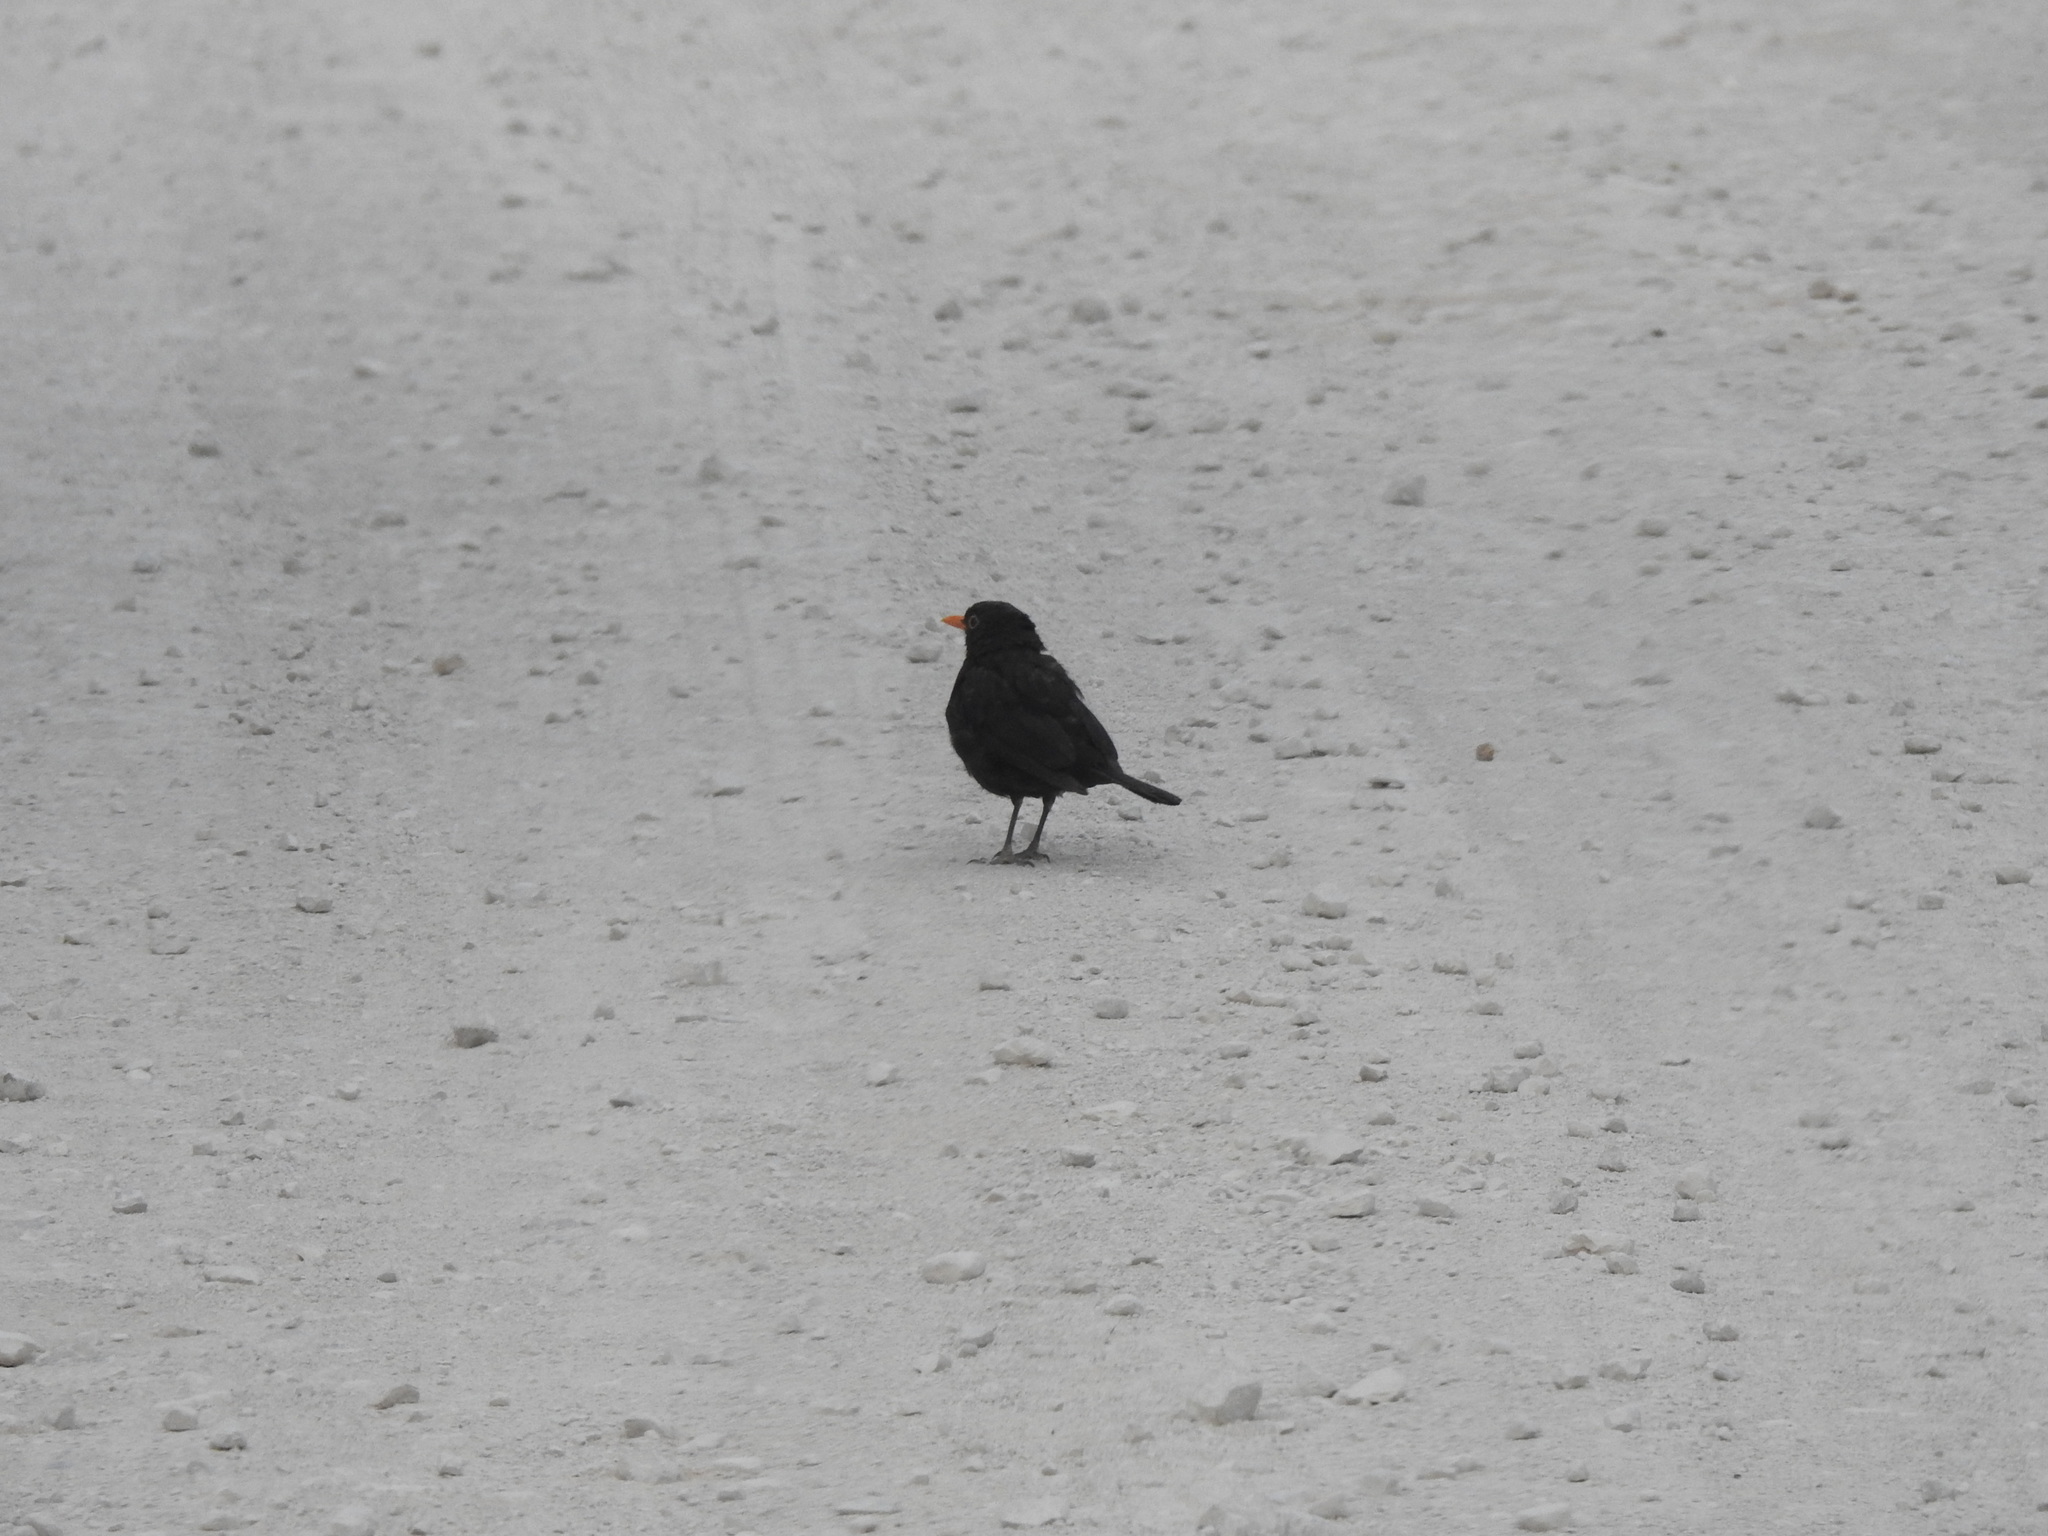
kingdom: Animalia
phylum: Chordata
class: Aves
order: Passeriformes
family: Turdidae
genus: Turdus
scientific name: Turdus merula
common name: Common blackbird
